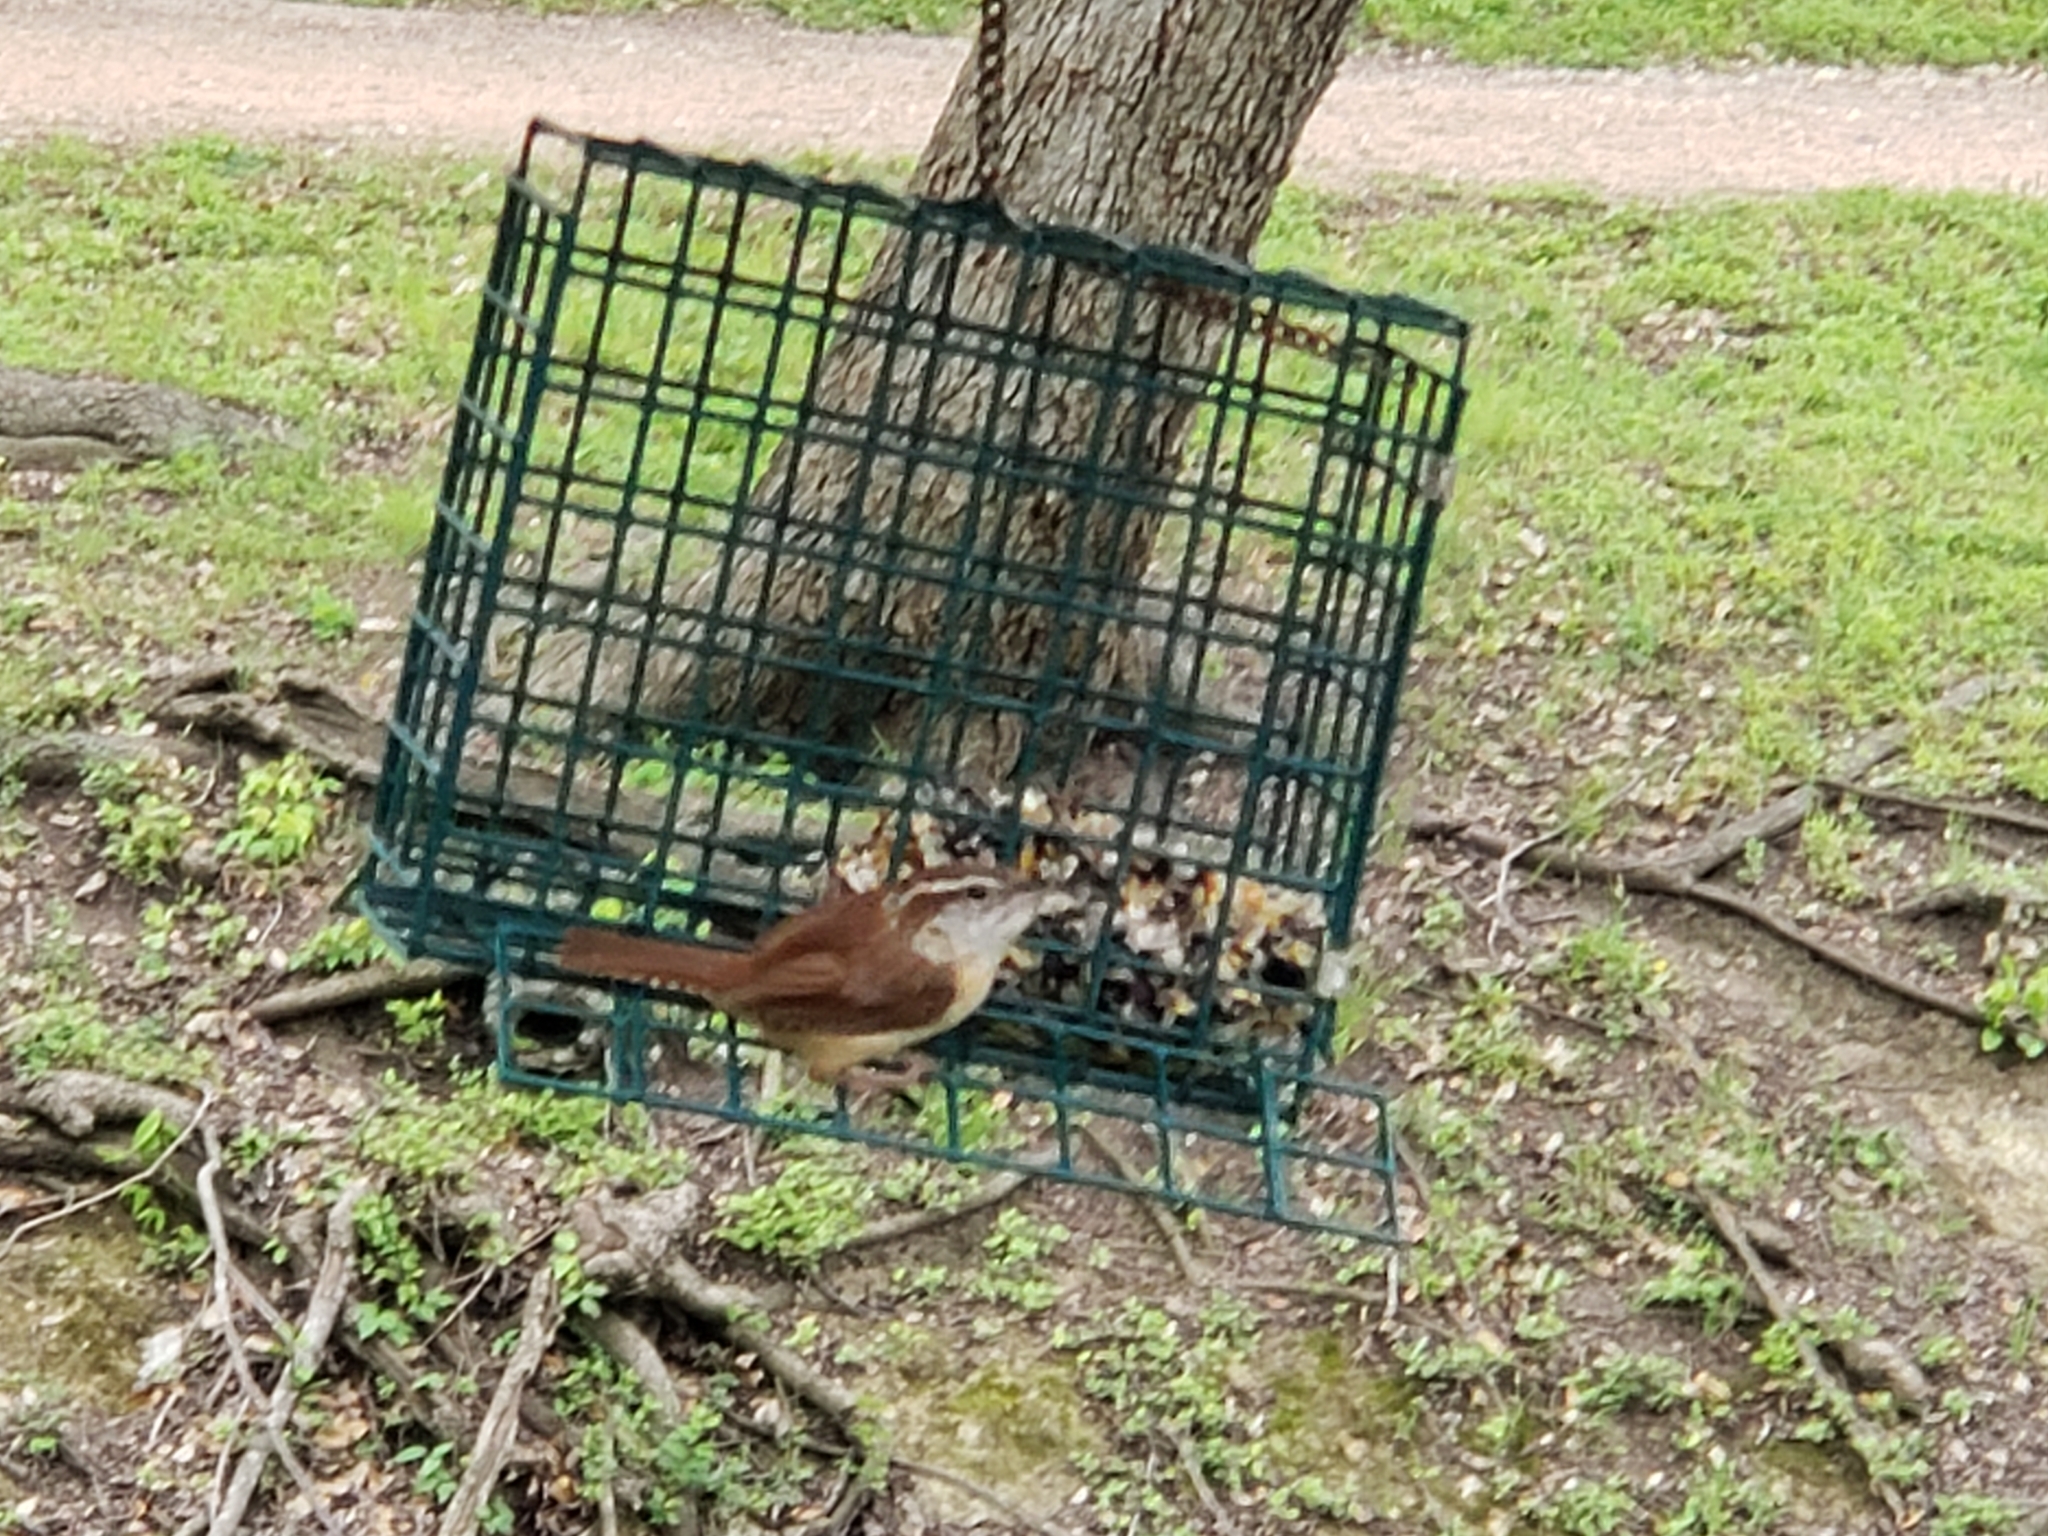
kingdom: Animalia
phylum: Chordata
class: Aves
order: Passeriformes
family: Troglodytidae
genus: Thryothorus
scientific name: Thryothorus ludovicianus
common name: Carolina wren
